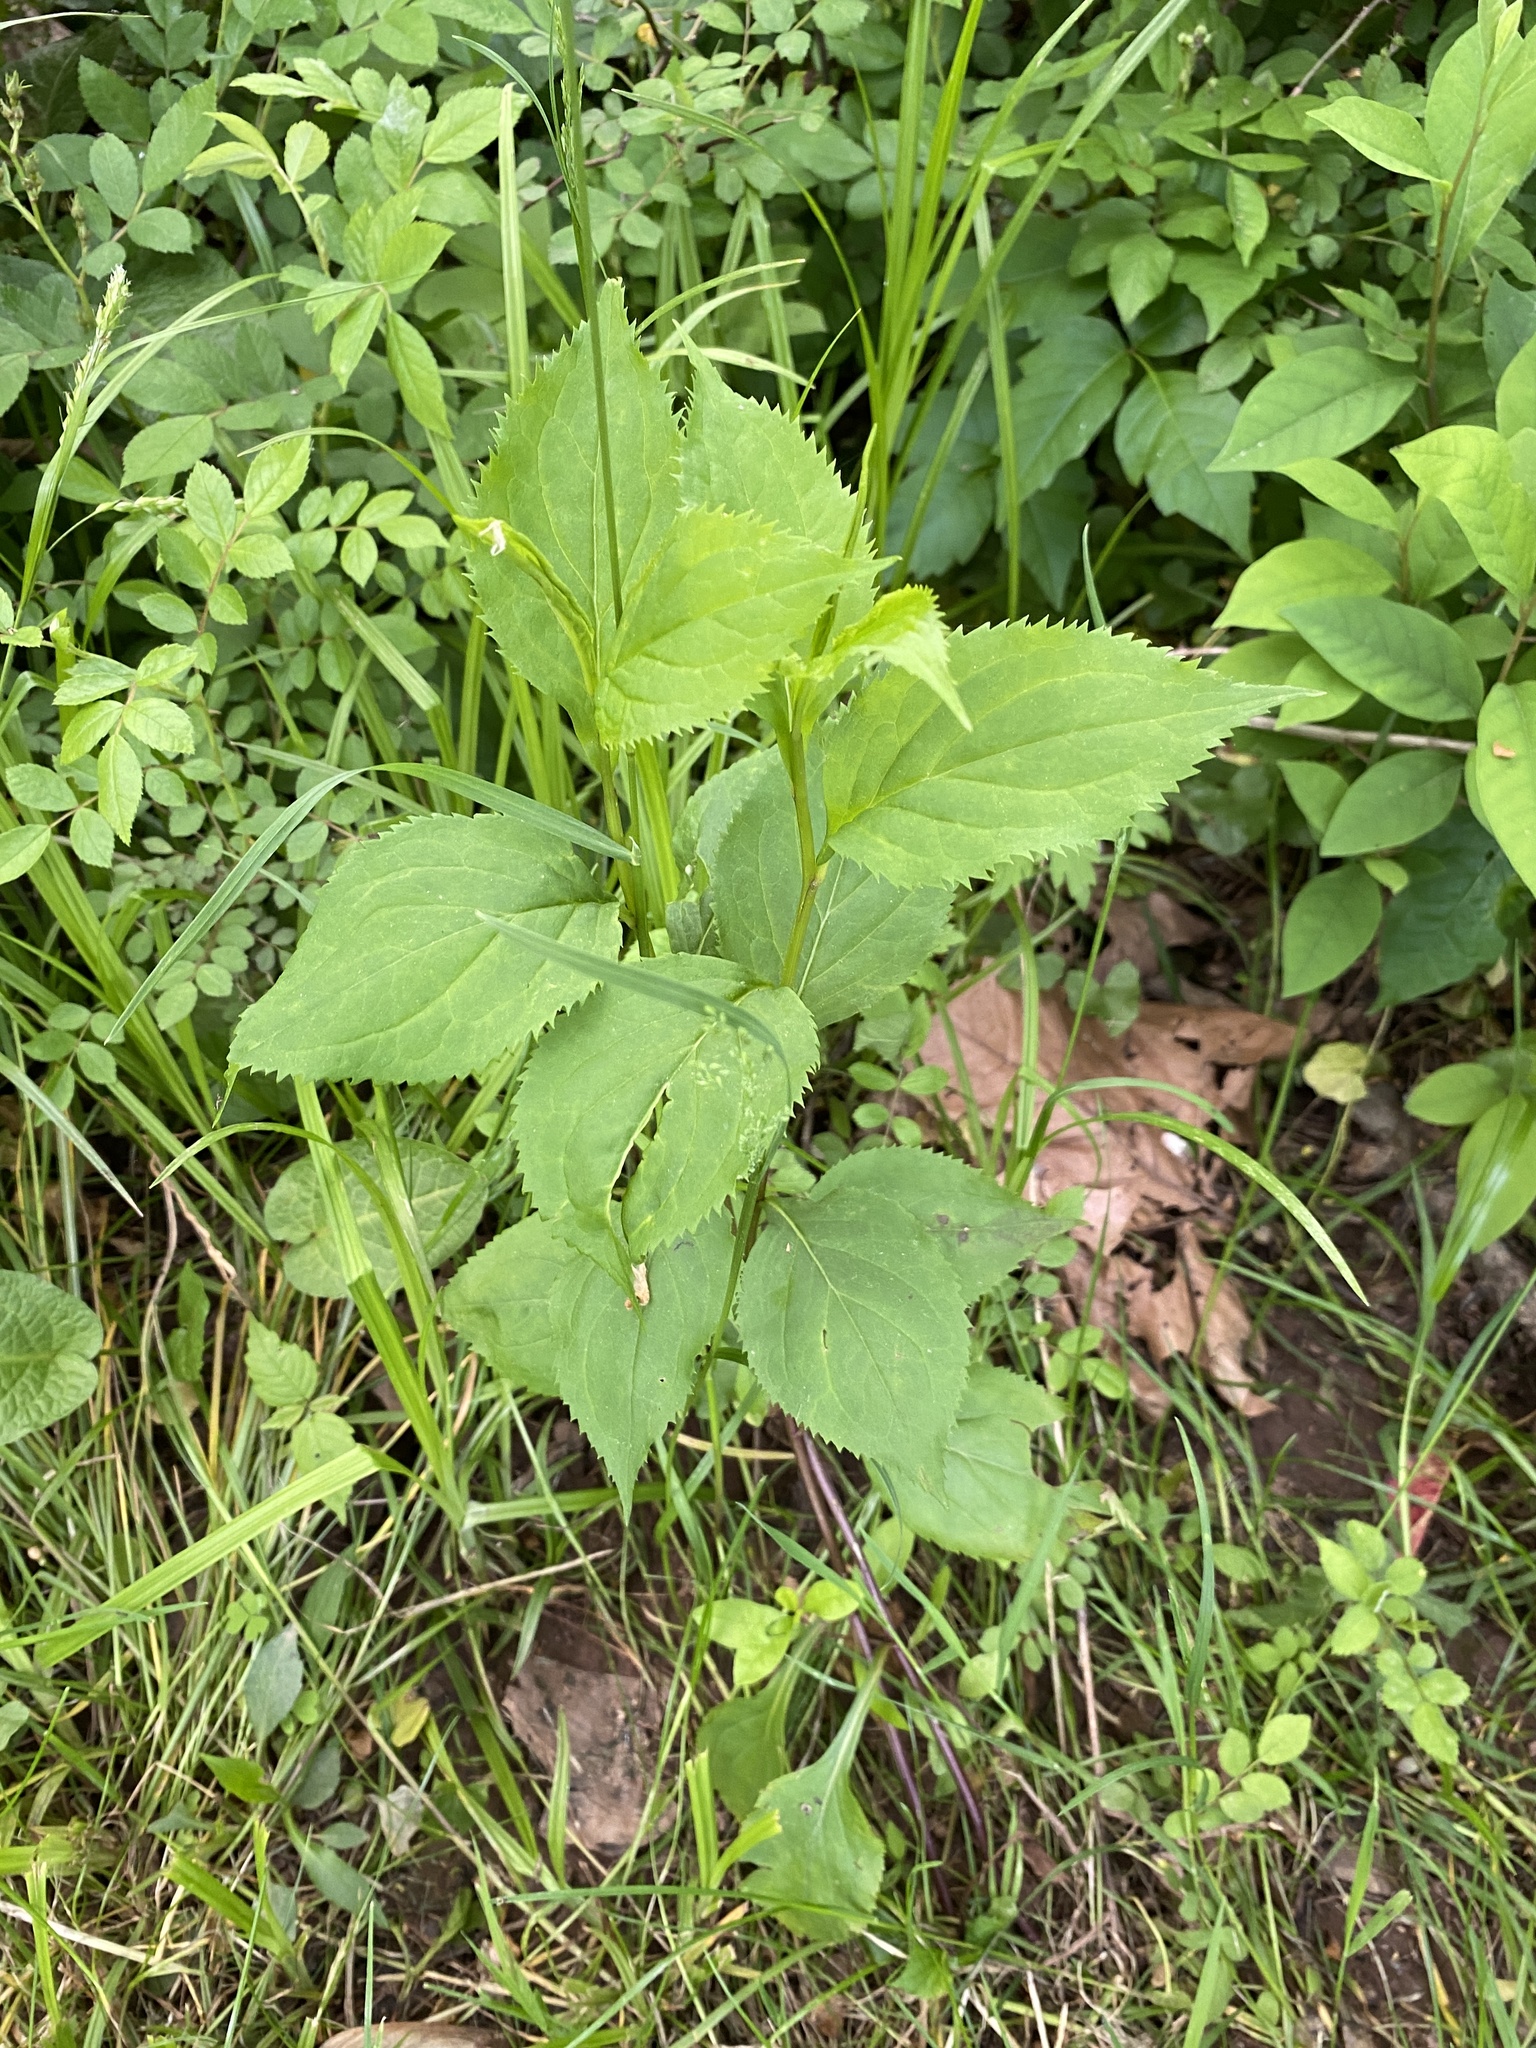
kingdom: Plantae
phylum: Tracheophyta
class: Magnoliopsida
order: Asterales
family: Asteraceae
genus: Solidago
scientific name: Solidago flexicaulis
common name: Zig-zag goldenrod
